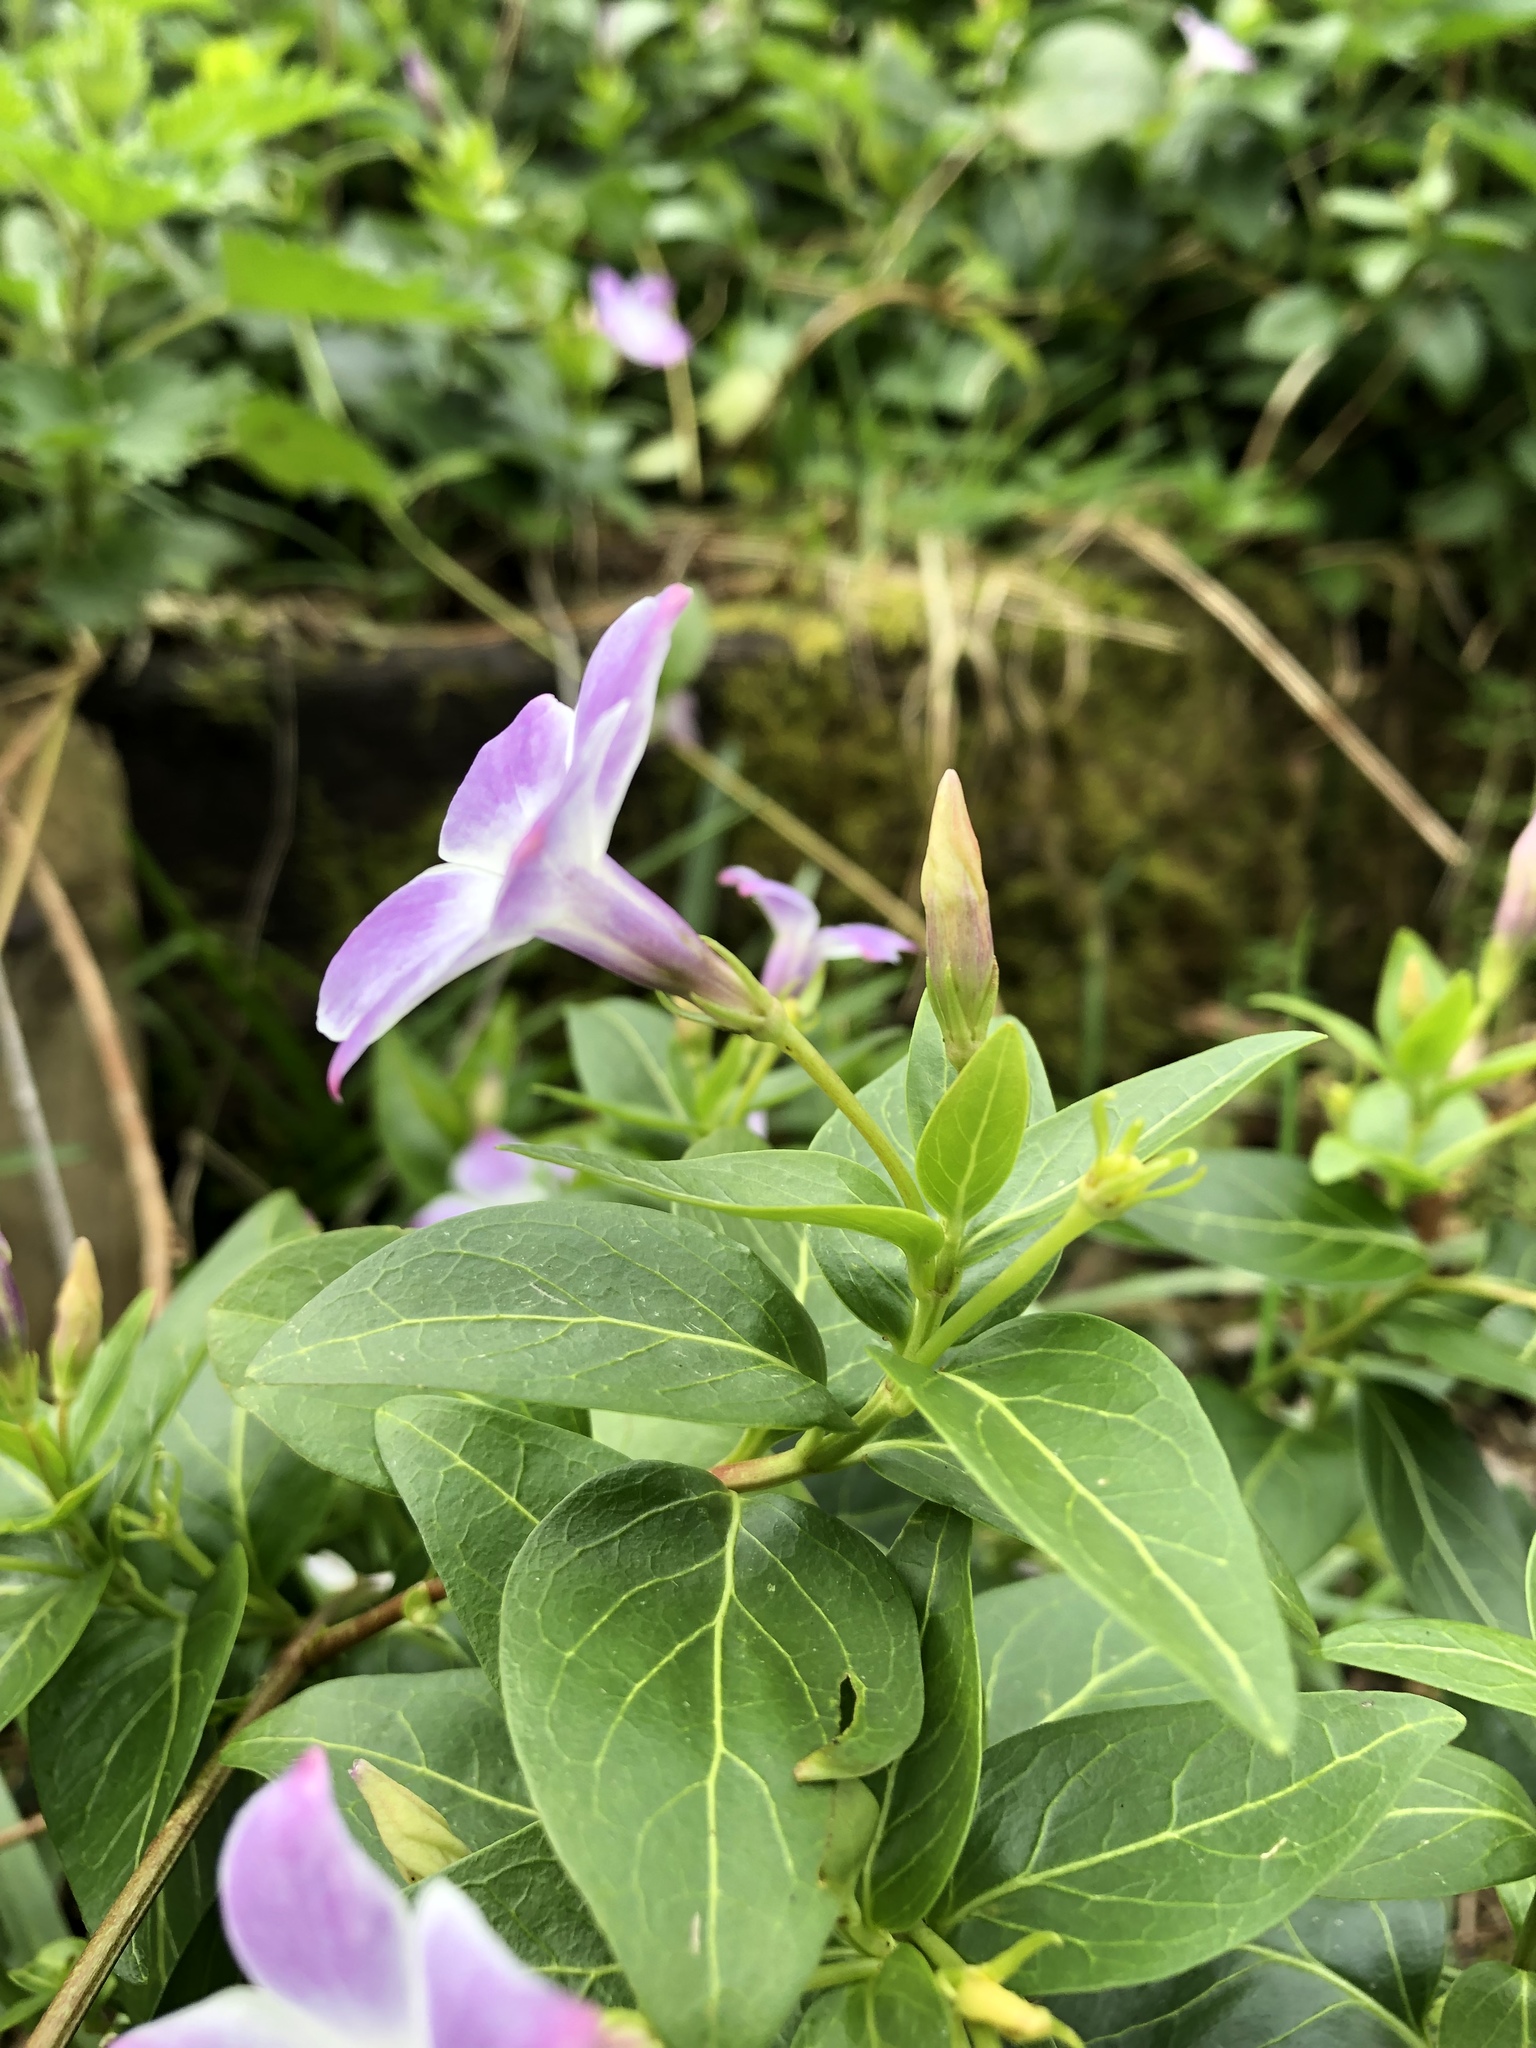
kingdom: Plantae
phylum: Tracheophyta
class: Magnoliopsida
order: Gentianales
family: Apocynaceae
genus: Vinca
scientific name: Vinca difformis
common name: Intermediate periwinkle
